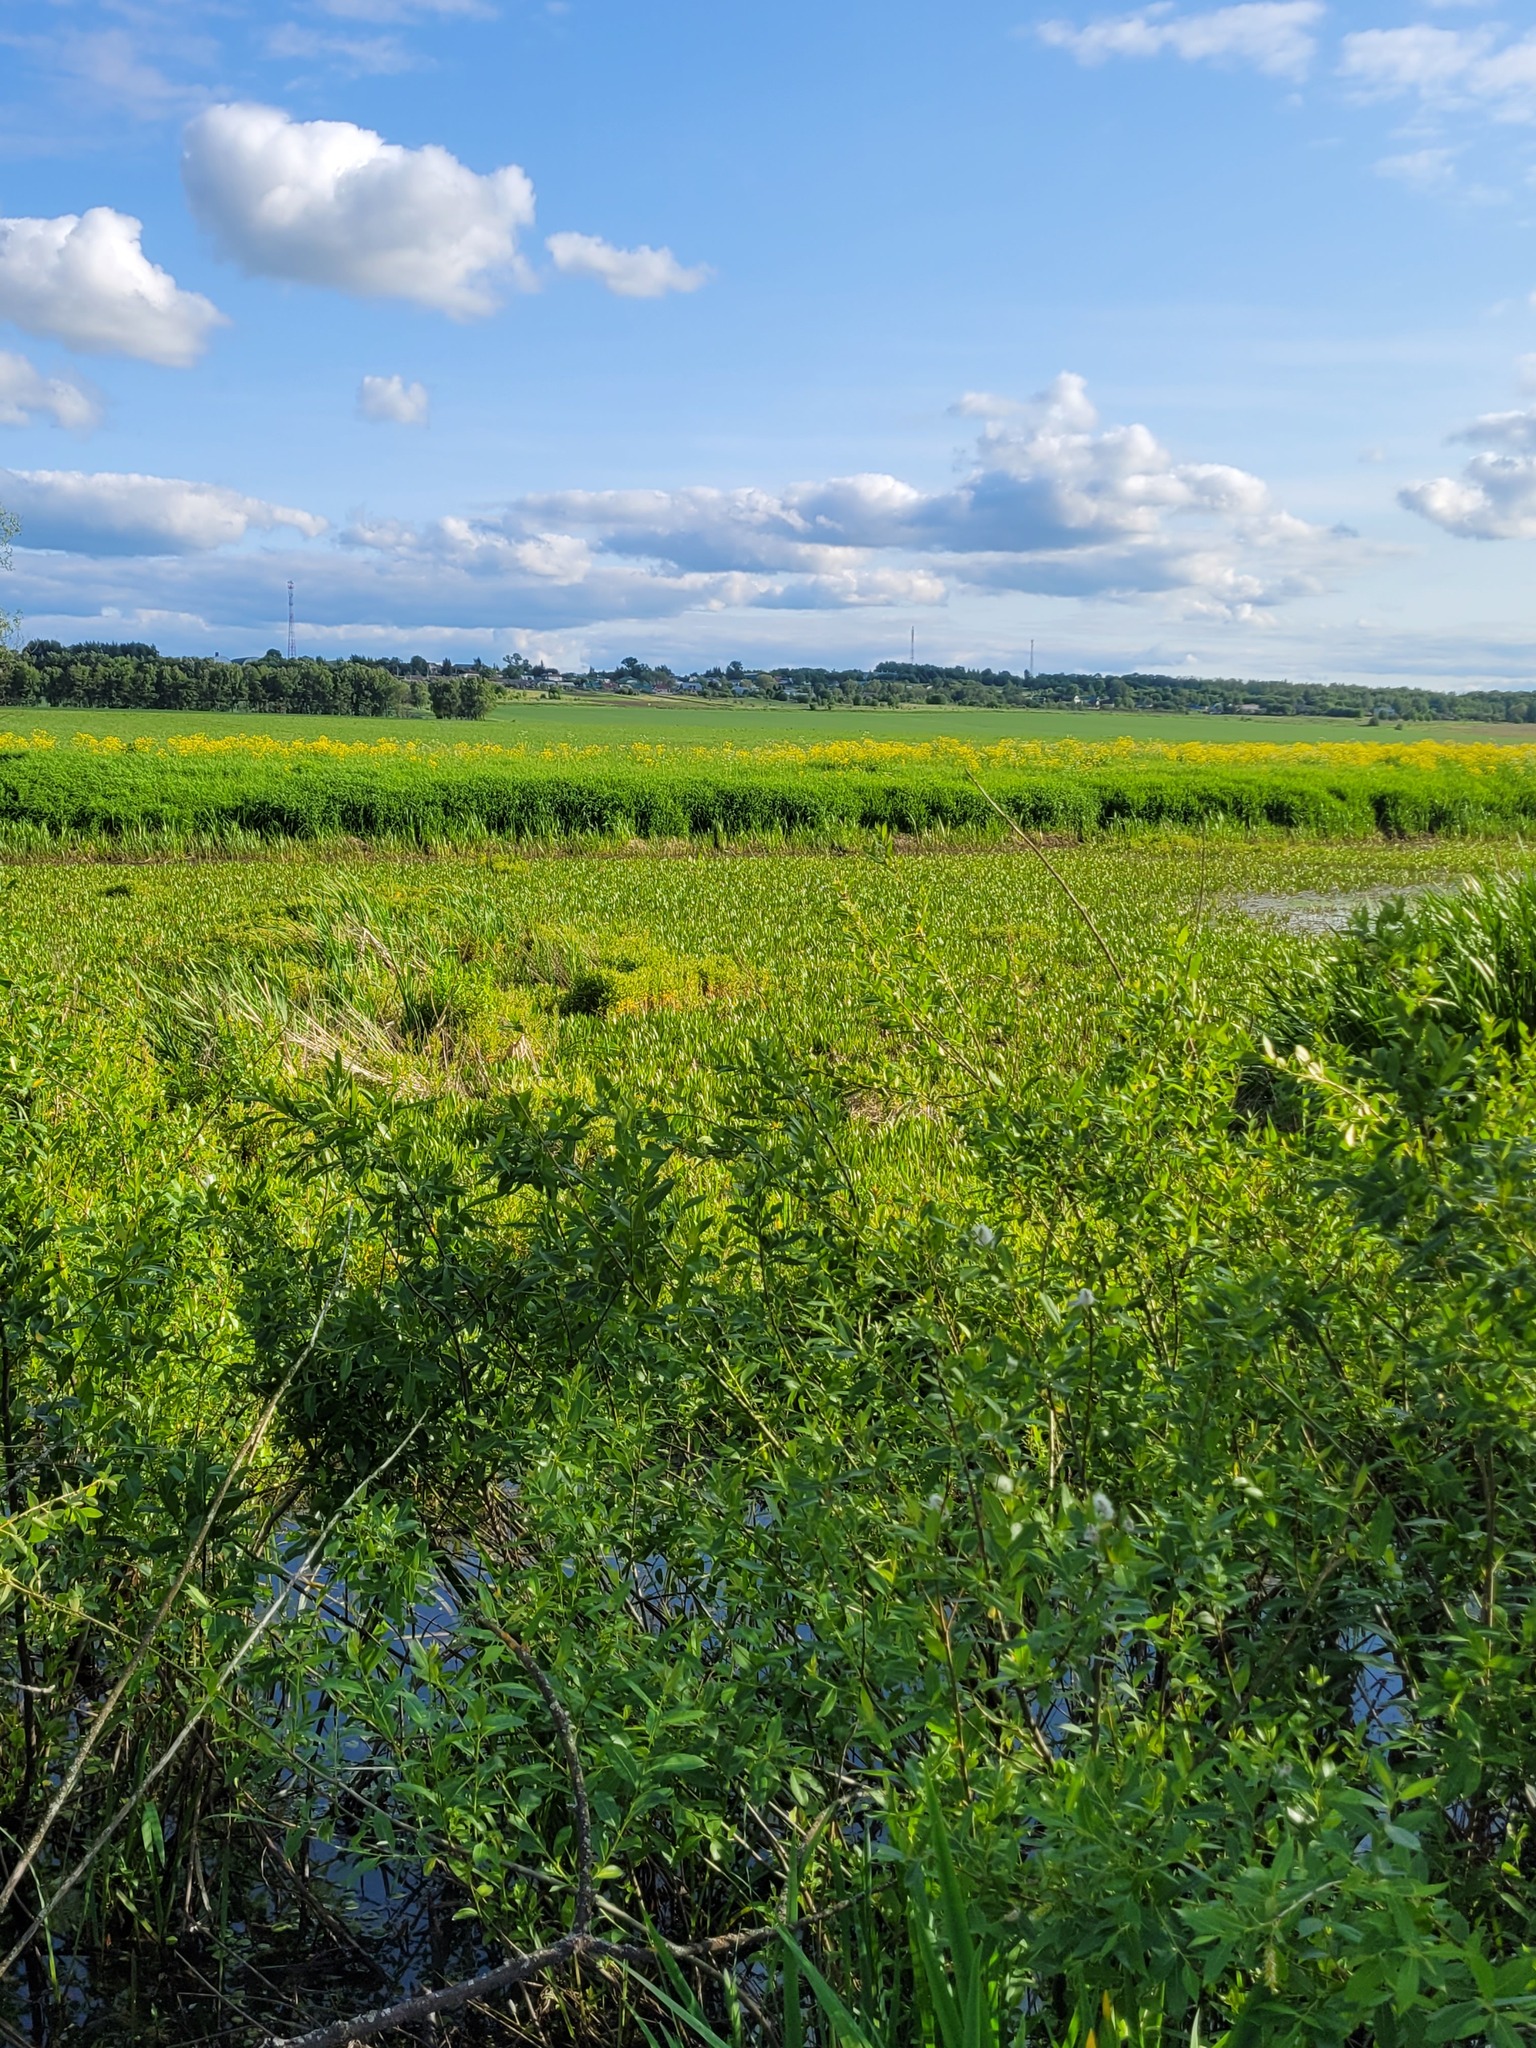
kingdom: Plantae
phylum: Tracheophyta
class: Liliopsida
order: Alismatales
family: Hydrocharitaceae
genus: Stratiotes
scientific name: Stratiotes aloides
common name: Water-soldier
